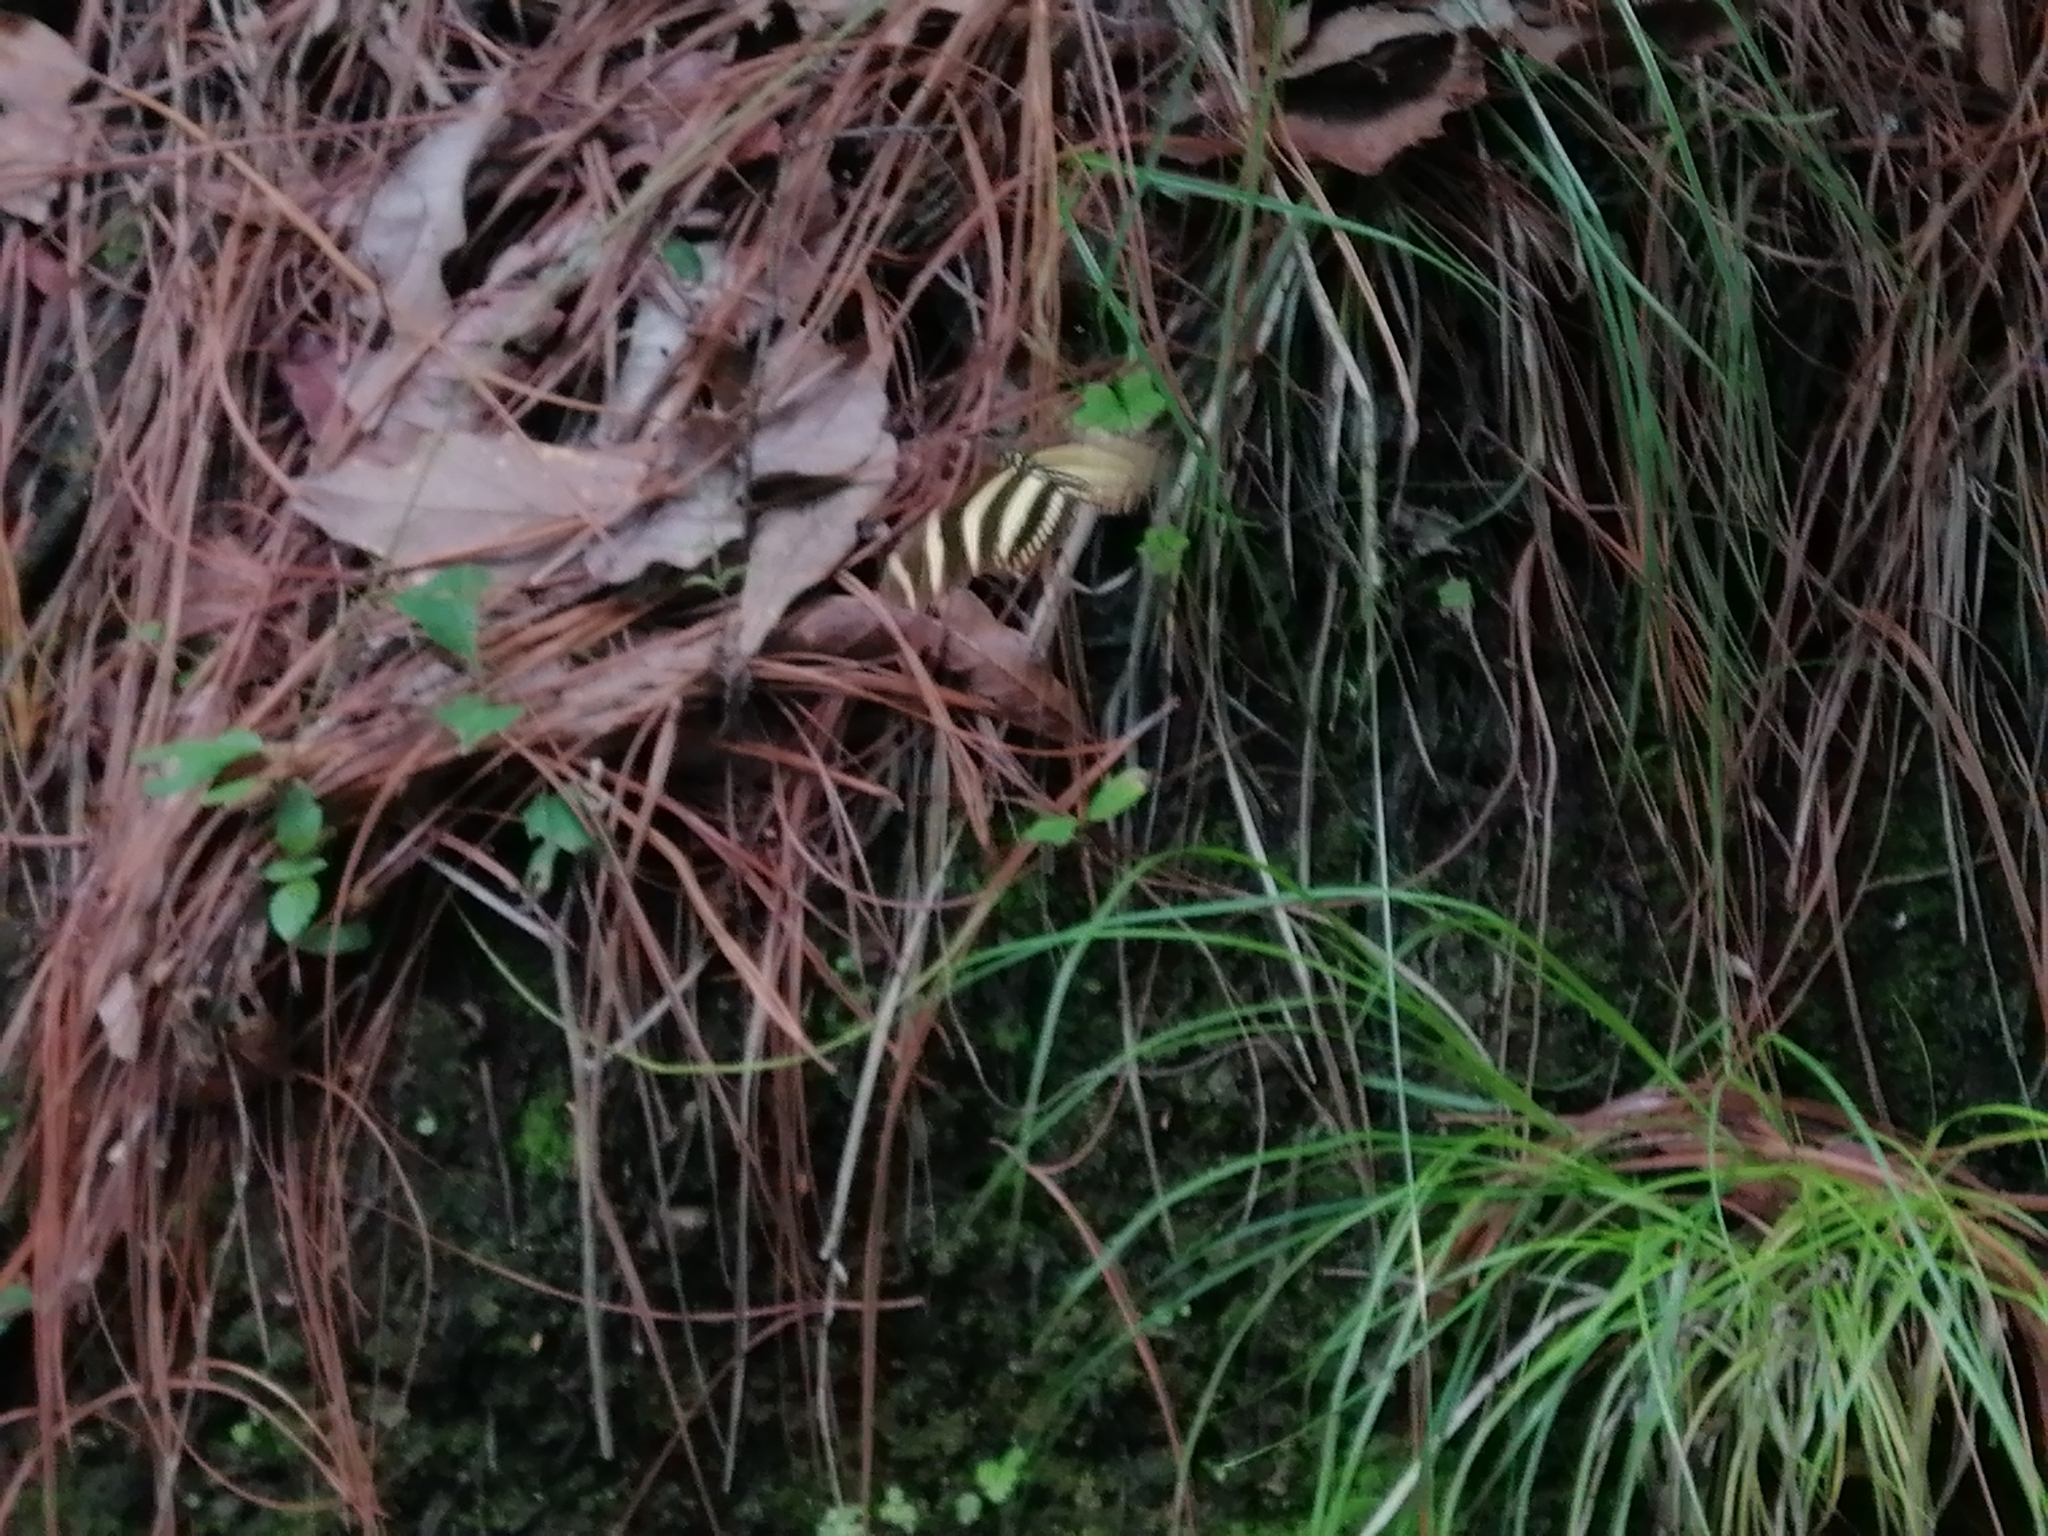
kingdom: Animalia
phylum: Arthropoda
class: Insecta
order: Lepidoptera
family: Nymphalidae
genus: Heliconius
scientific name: Heliconius charithonia
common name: Zebra long wing
